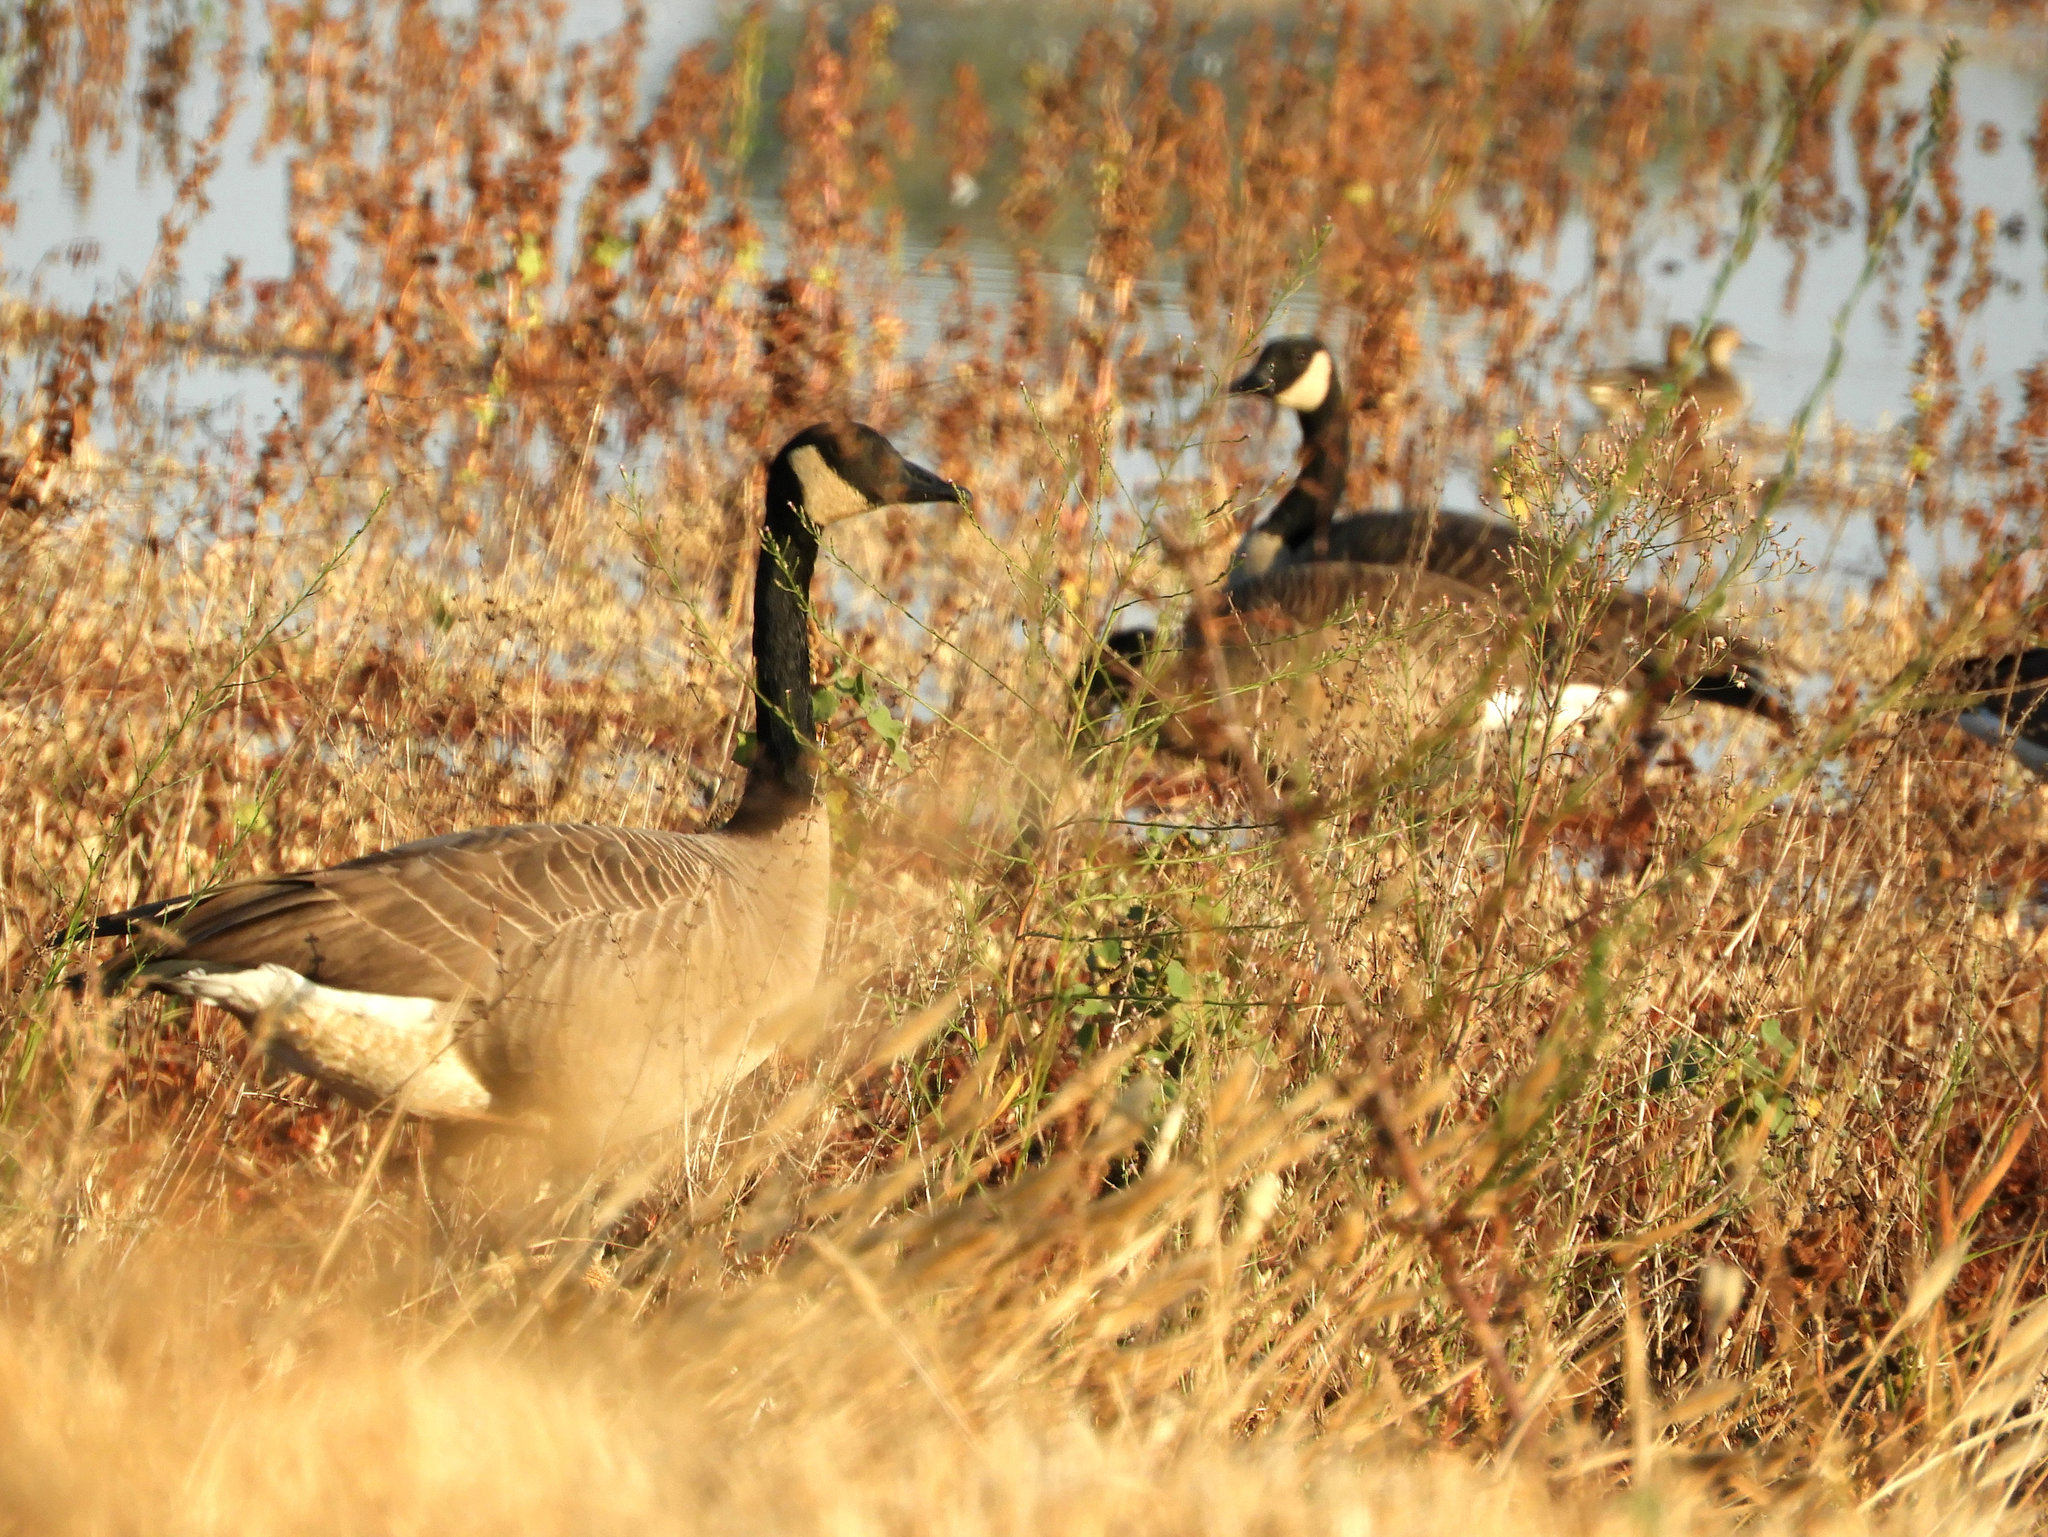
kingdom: Animalia
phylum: Chordata
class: Aves
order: Anseriformes
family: Anatidae
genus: Branta
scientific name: Branta canadensis
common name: Canada goose
